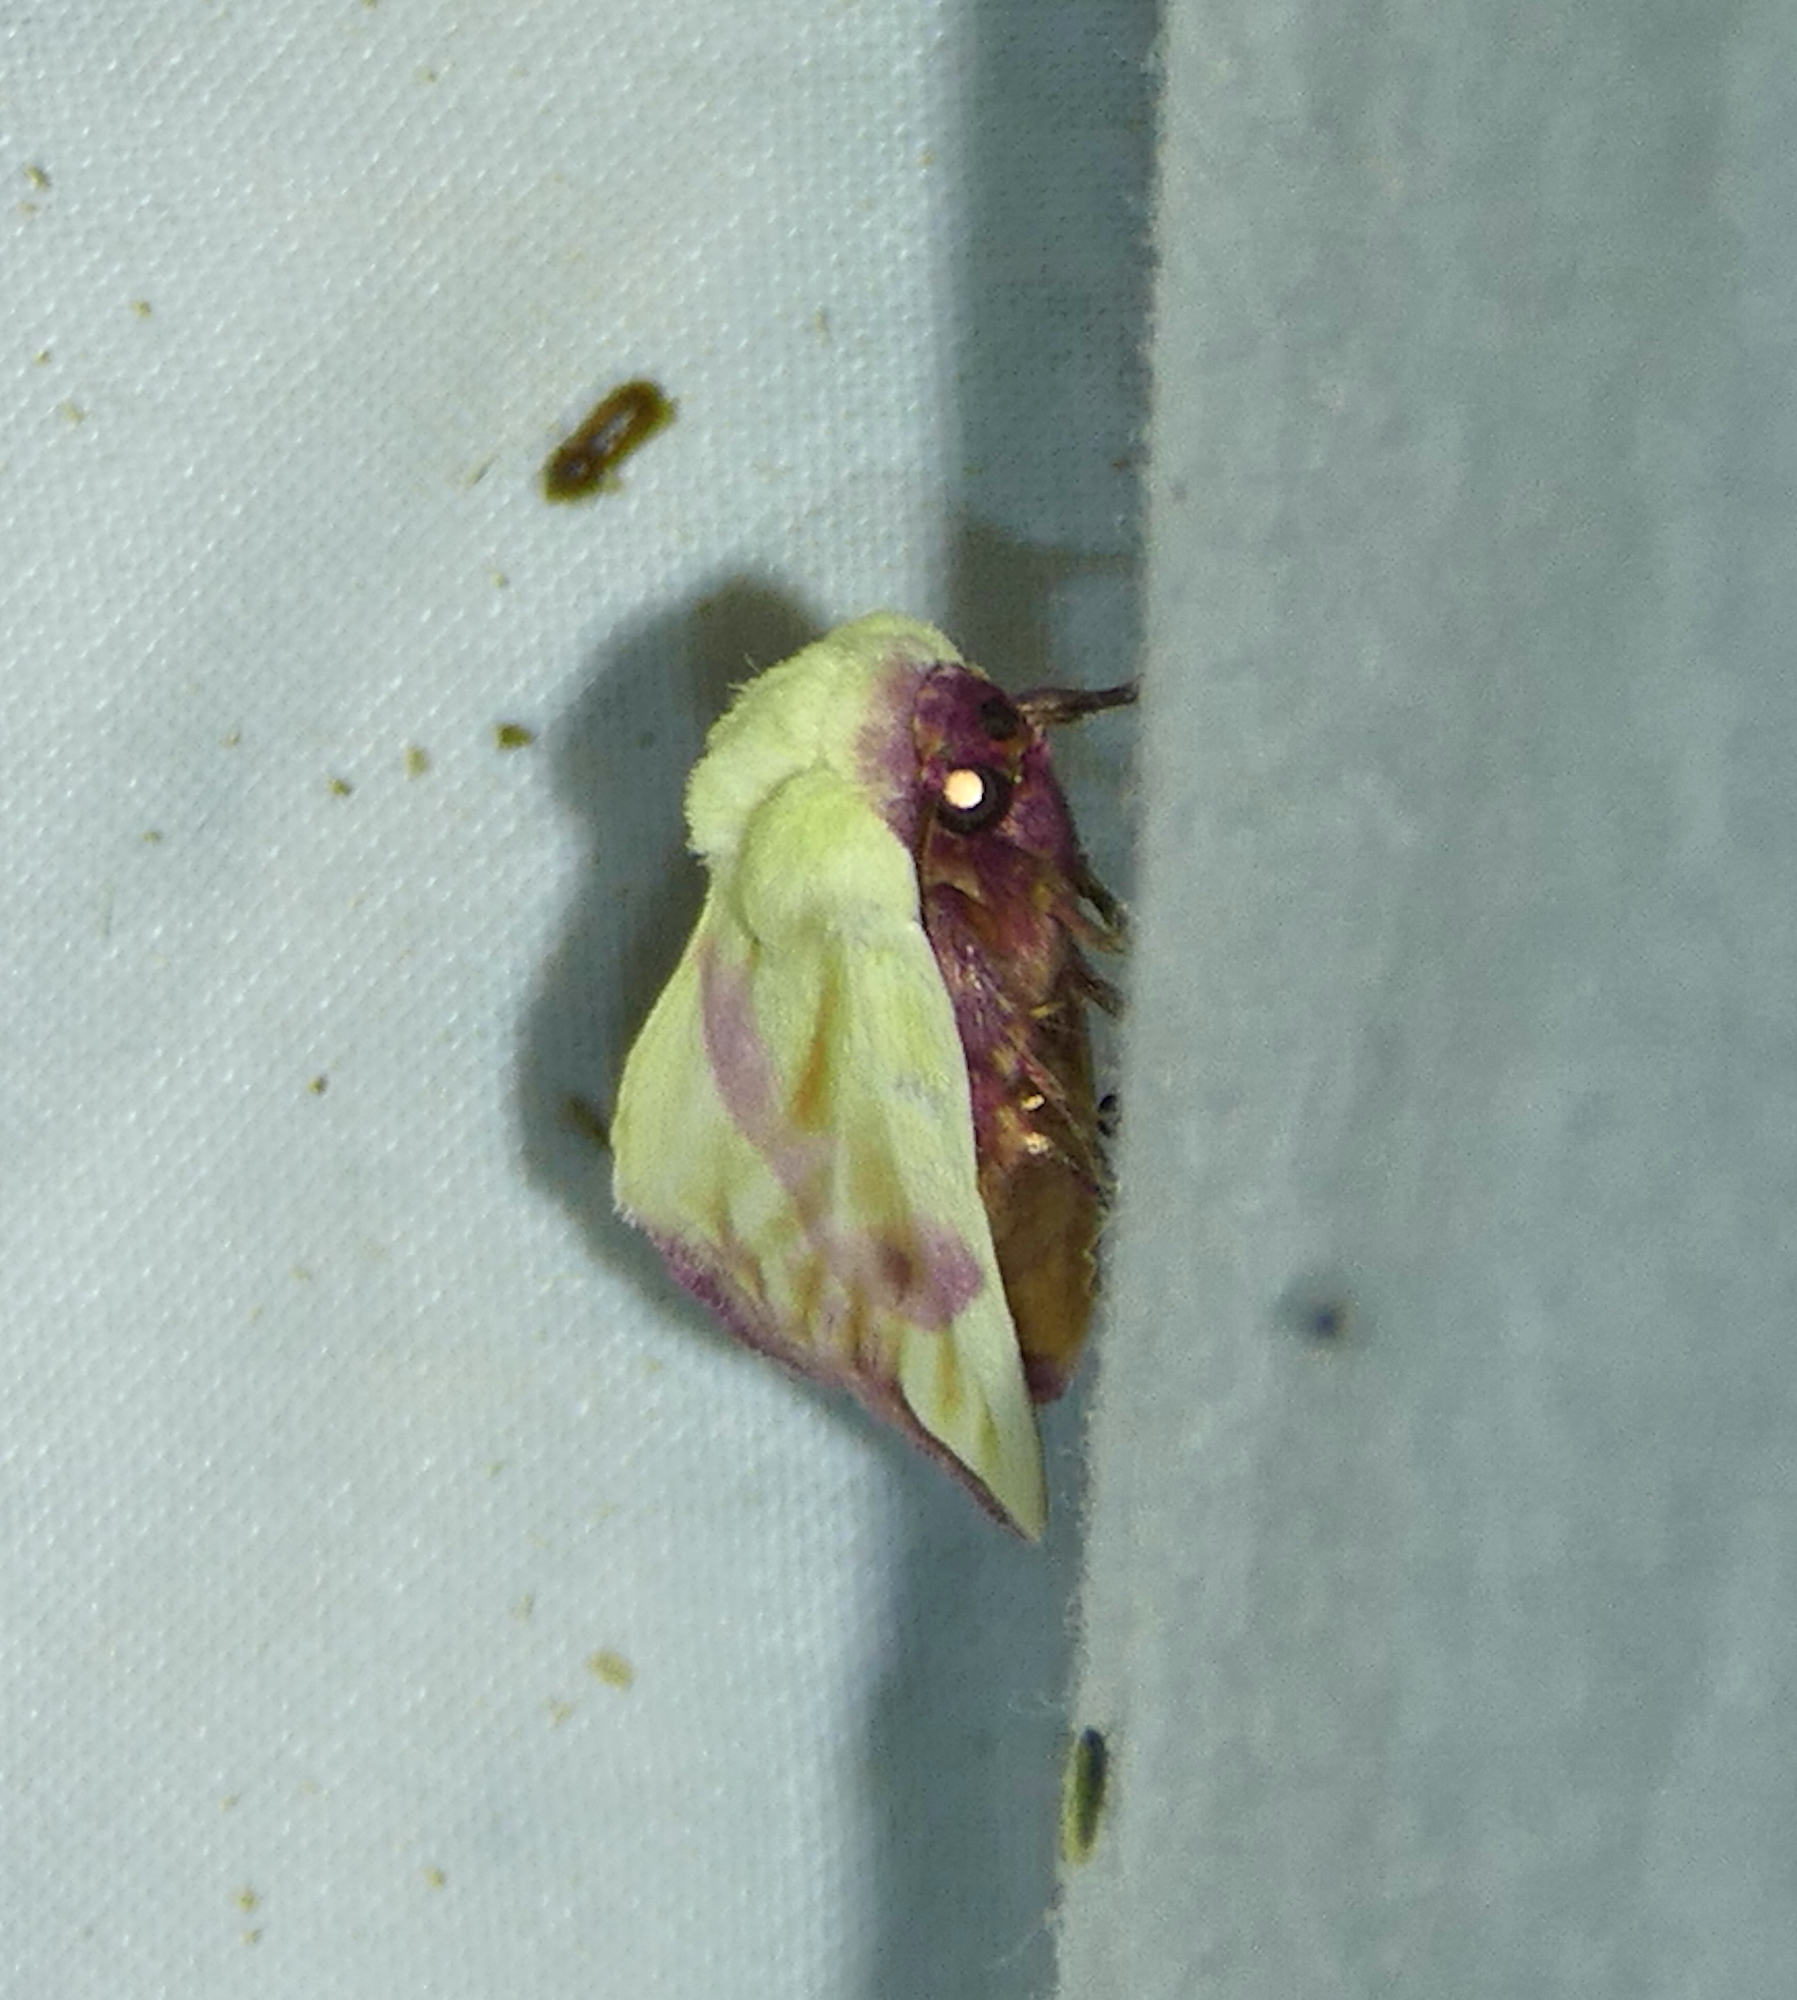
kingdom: Animalia
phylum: Arthropoda
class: Insecta
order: Lepidoptera
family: Noctuidae
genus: Thurberiphaga
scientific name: Thurberiphaga diffusa
